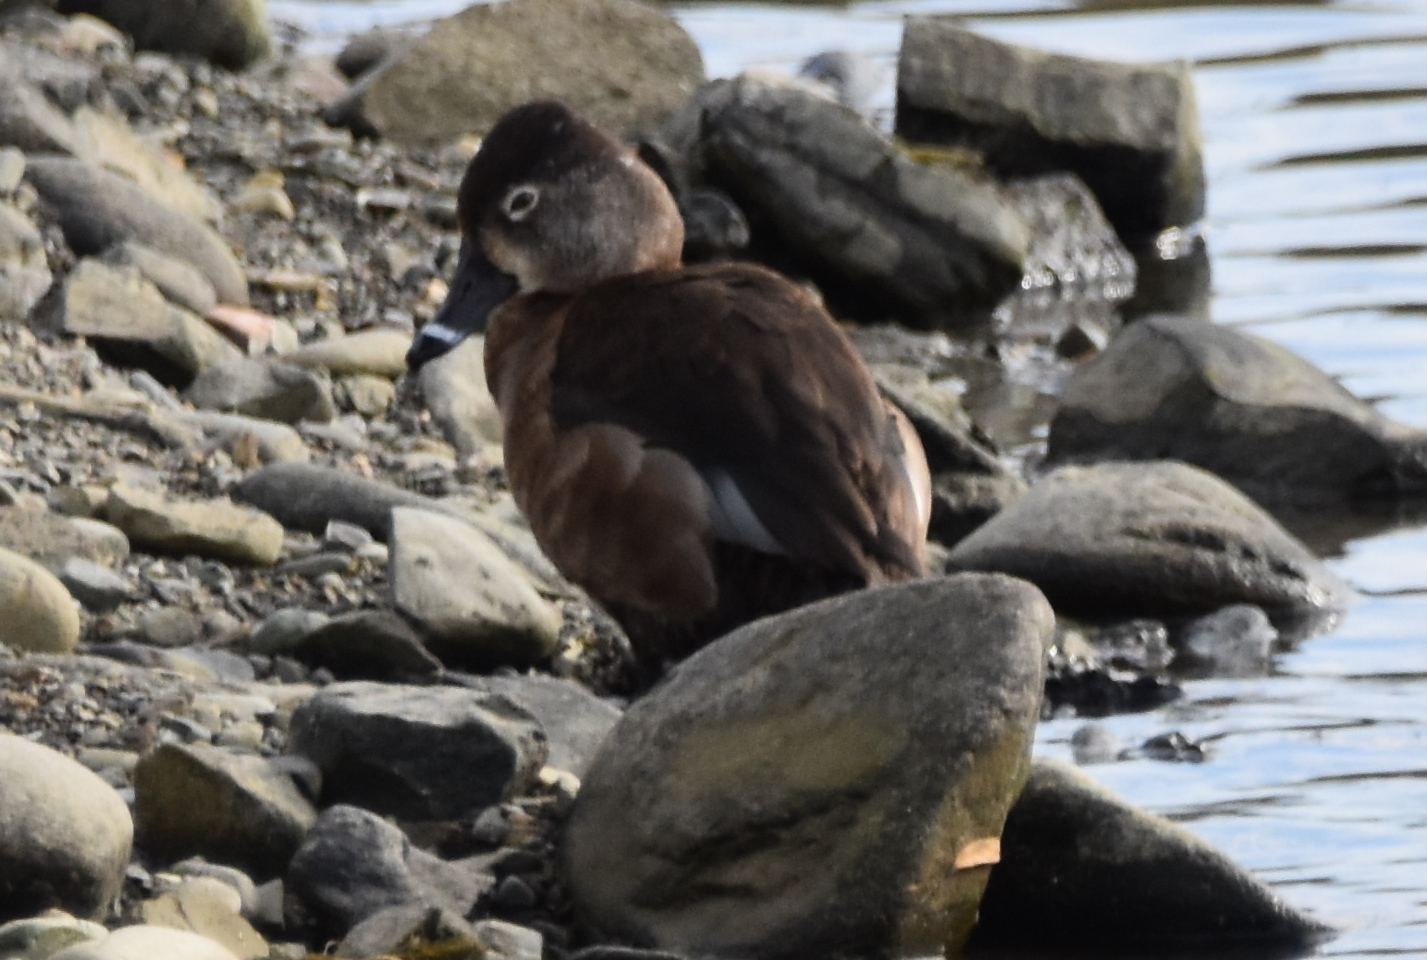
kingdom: Animalia
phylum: Chordata
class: Aves
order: Anseriformes
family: Anatidae
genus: Aythya
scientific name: Aythya collaris
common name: Ring-necked duck
